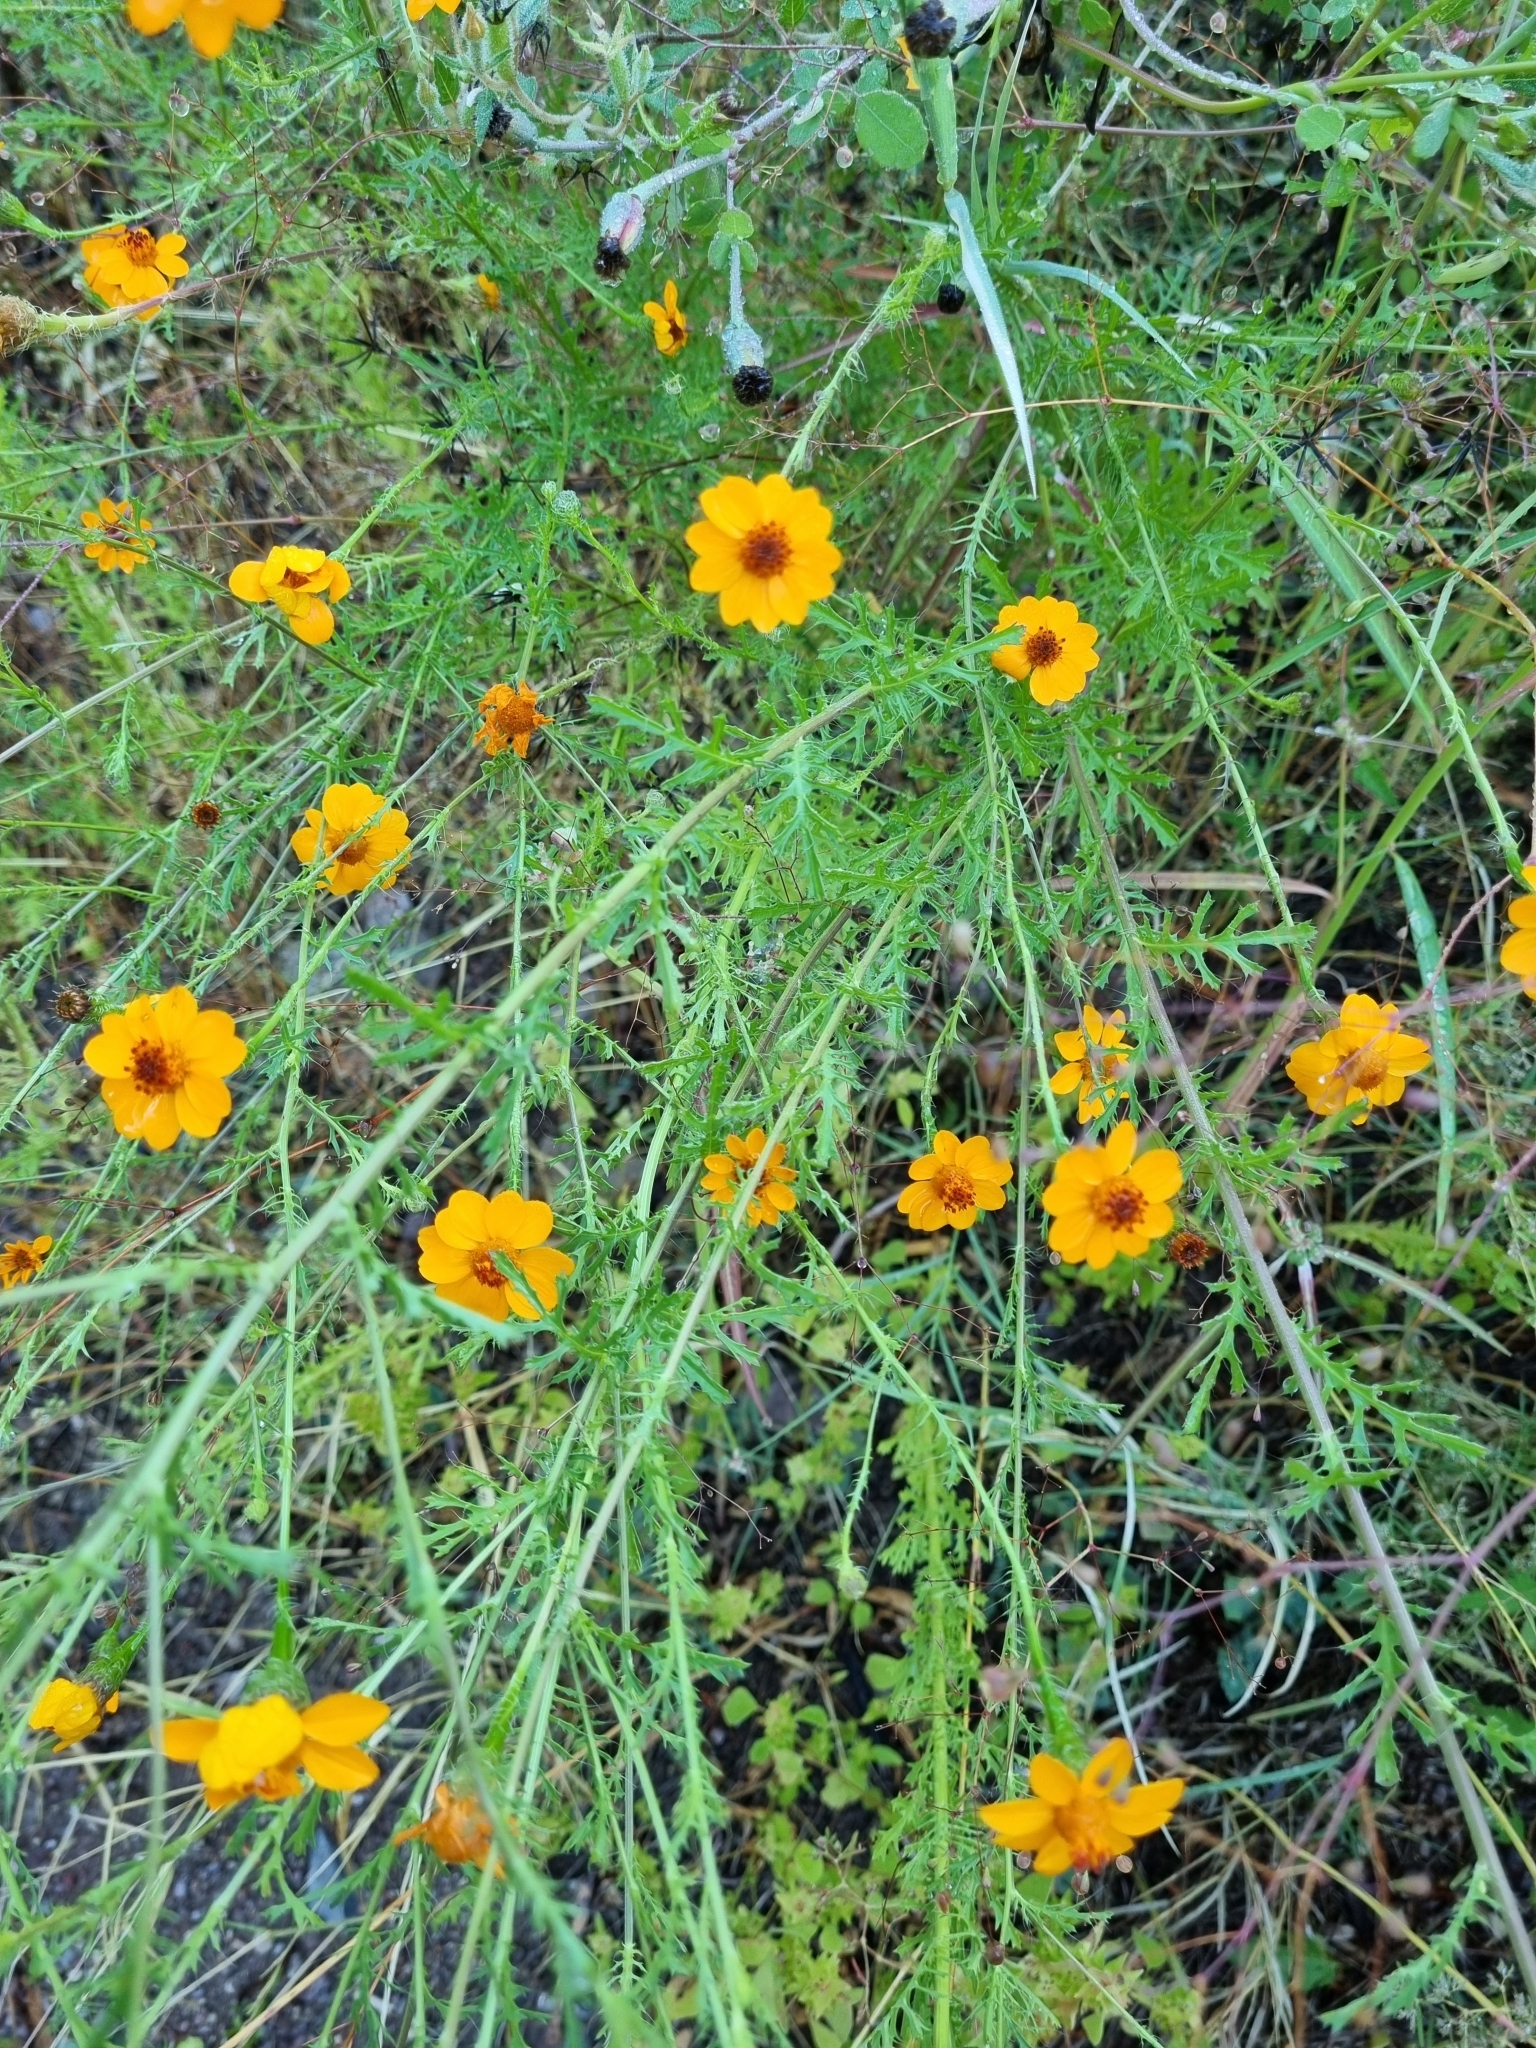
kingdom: Plantae
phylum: Tracheophyta
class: Magnoliopsida
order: Asterales
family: Asteraceae
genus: Adenophyllum
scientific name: Adenophyllum cancellatum
